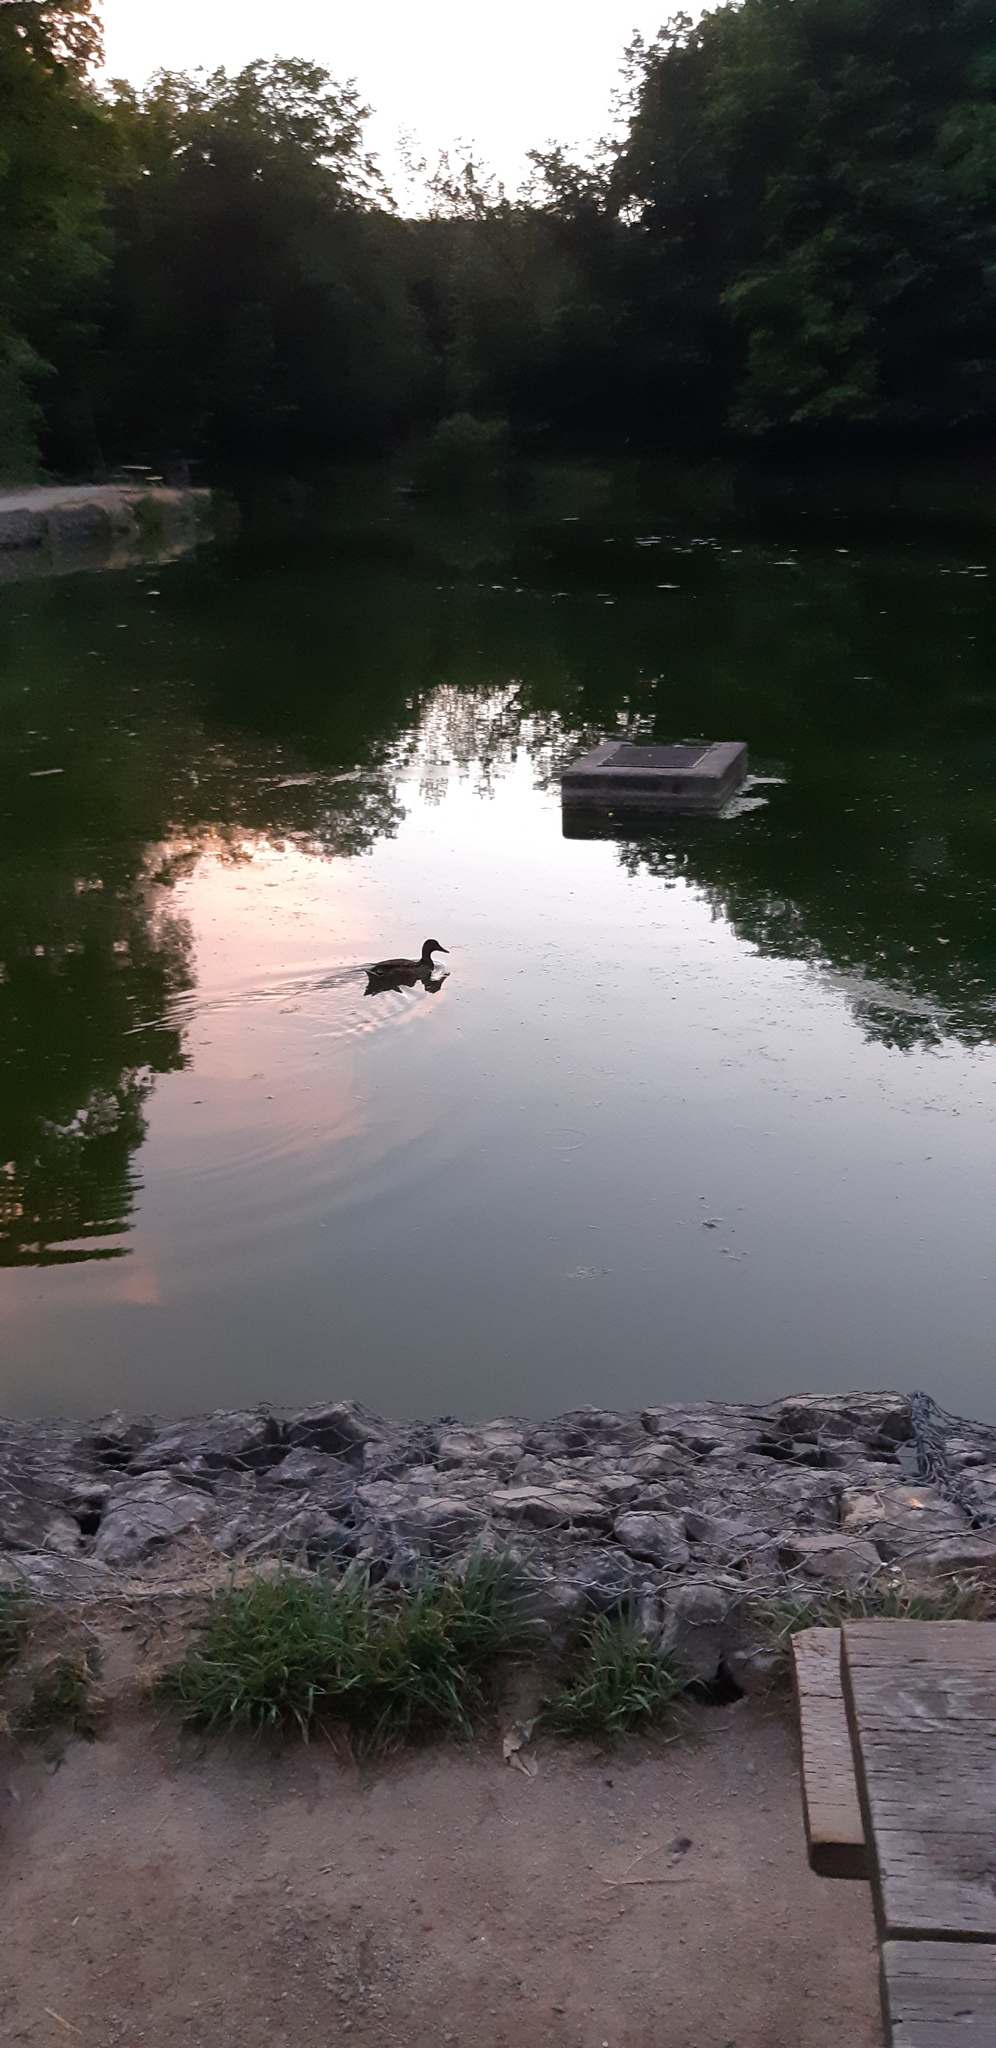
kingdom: Animalia
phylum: Chordata
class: Aves
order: Anseriformes
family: Anatidae
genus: Anas
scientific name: Anas platyrhynchos
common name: Mallard
